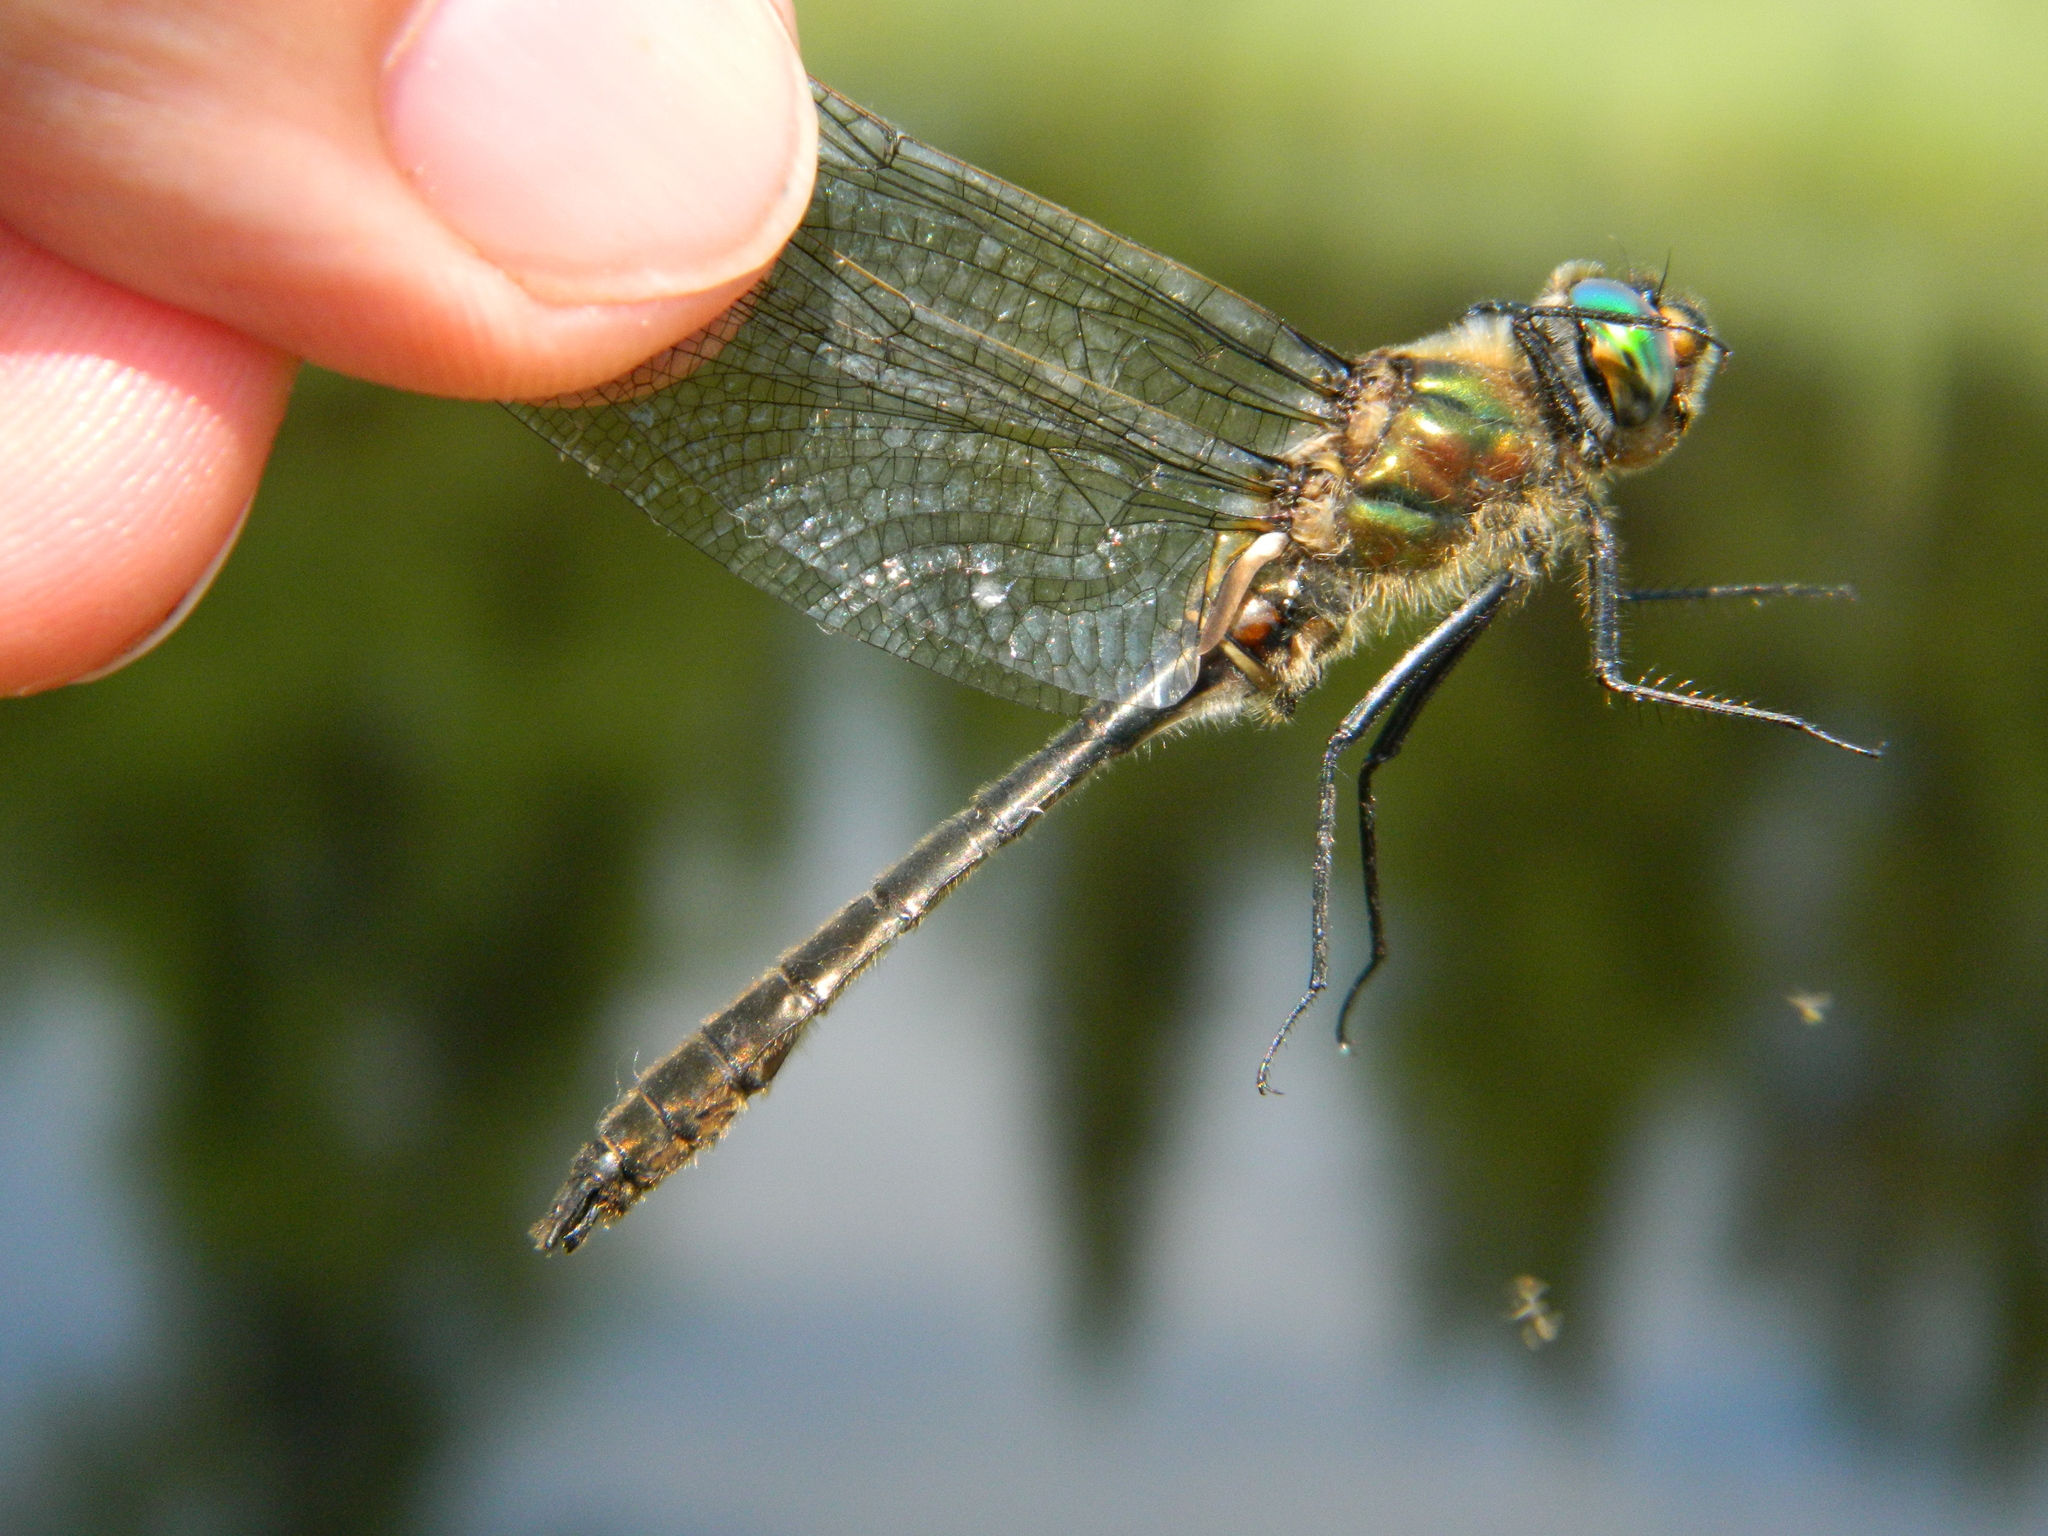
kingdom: Animalia
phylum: Arthropoda
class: Insecta
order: Odonata
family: Corduliidae
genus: Cordulia
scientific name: Cordulia shurtleffii
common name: American emerald
